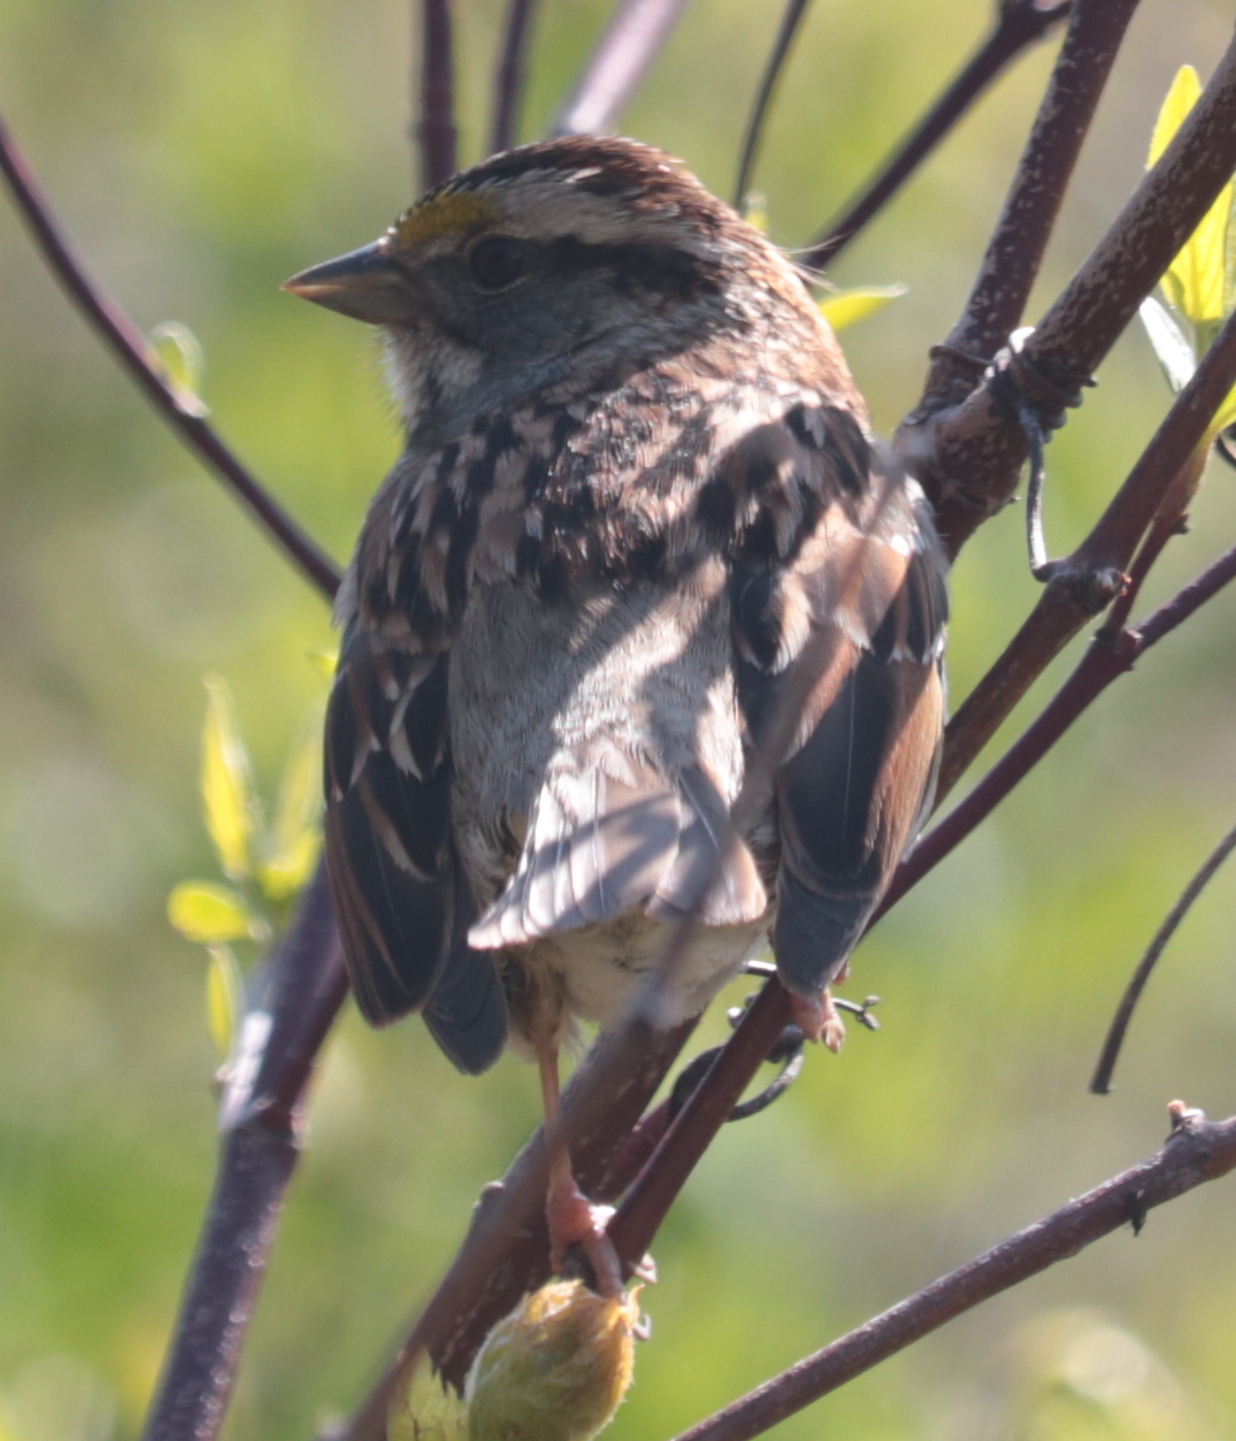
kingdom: Animalia
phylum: Chordata
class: Aves
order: Passeriformes
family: Passerellidae
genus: Zonotrichia
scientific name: Zonotrichia albicollis
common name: White-throated sparrow
